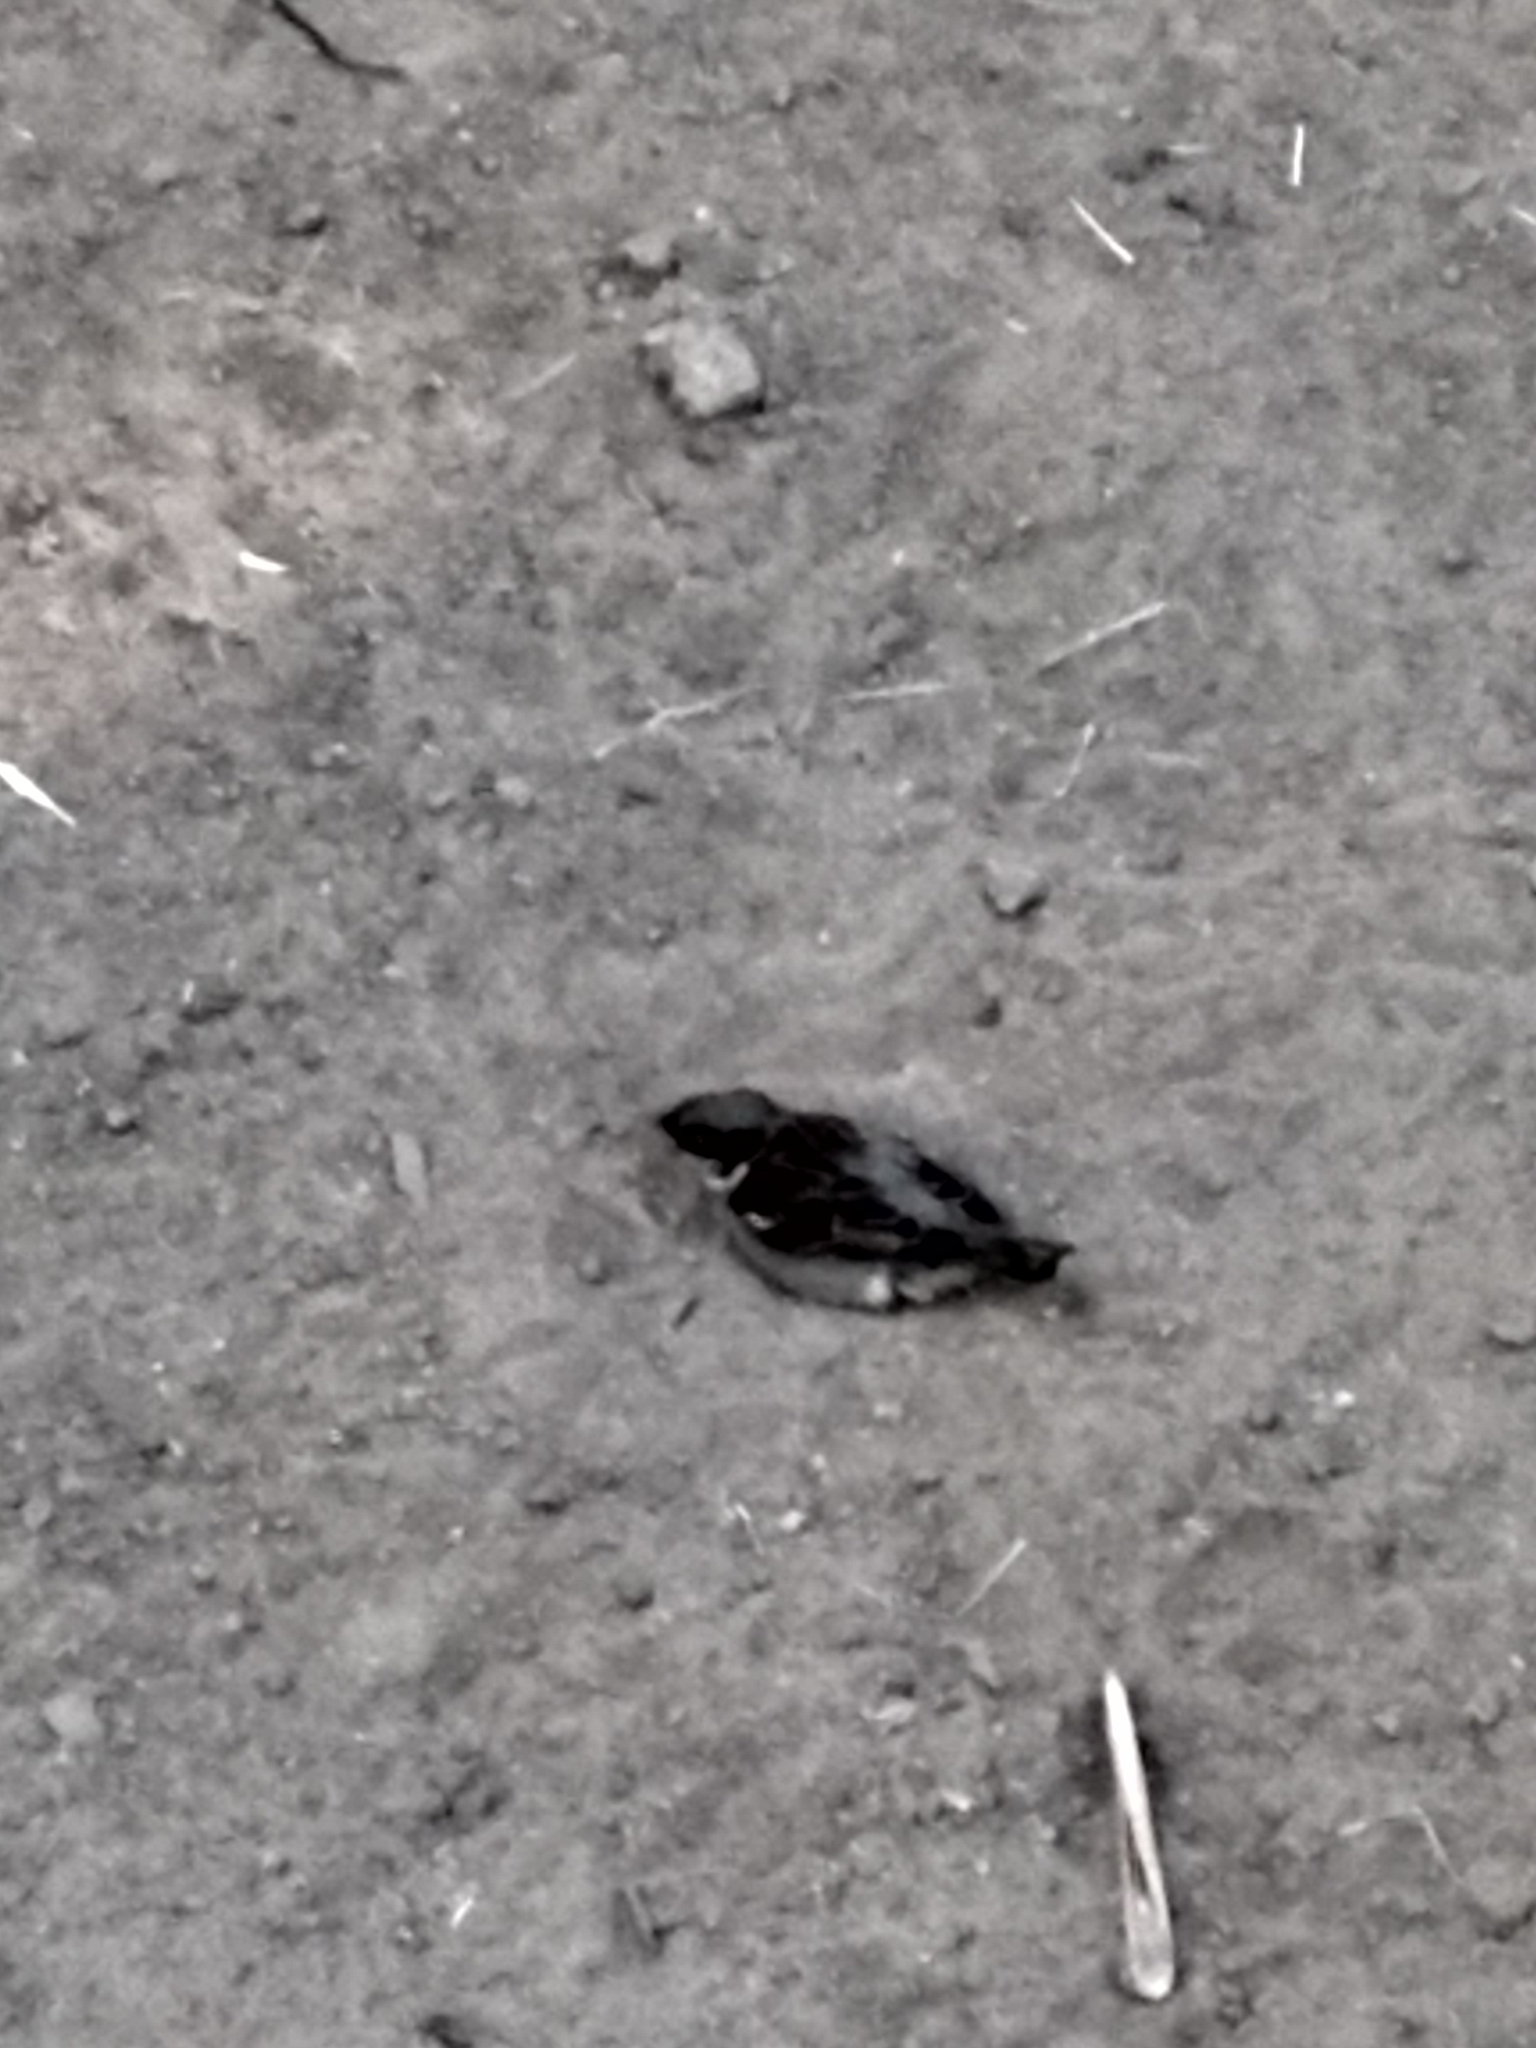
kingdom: Animalia
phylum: Chordata
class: Aves
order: Passeriformes
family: Passeridae
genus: Passer
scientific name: Passer domesticus
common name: House sparrow
